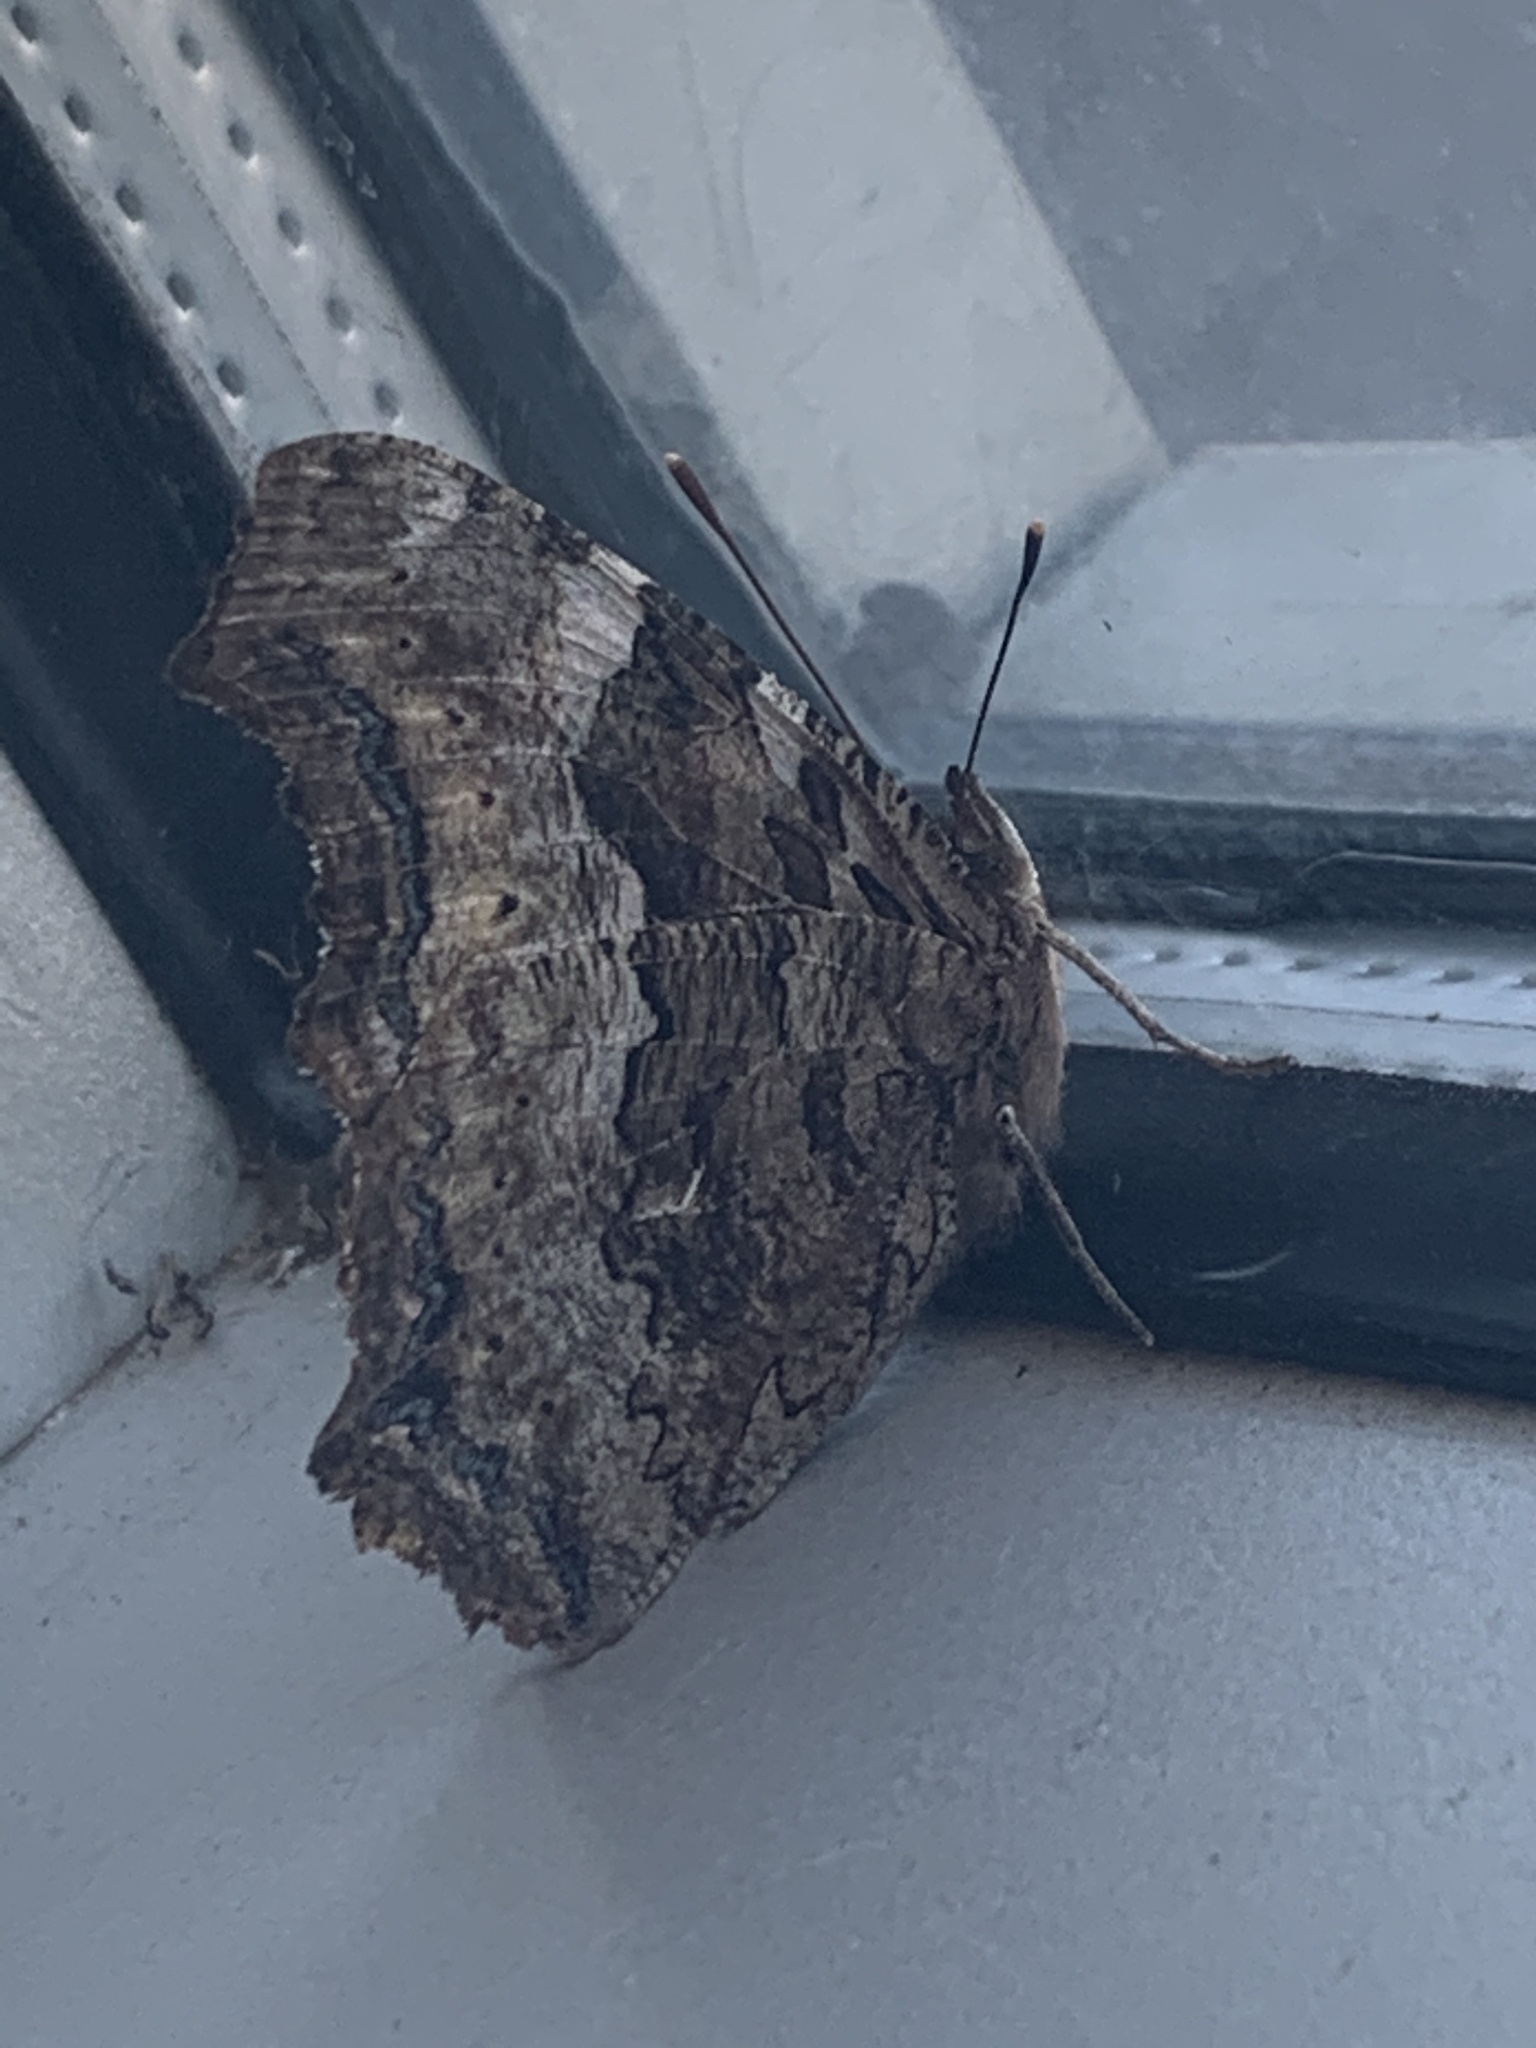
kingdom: Animalia
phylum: Arthropoda
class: Insecta
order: Lepidoptera
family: Nymphalidae
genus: Polygonia
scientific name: Polygonia vaualbum
